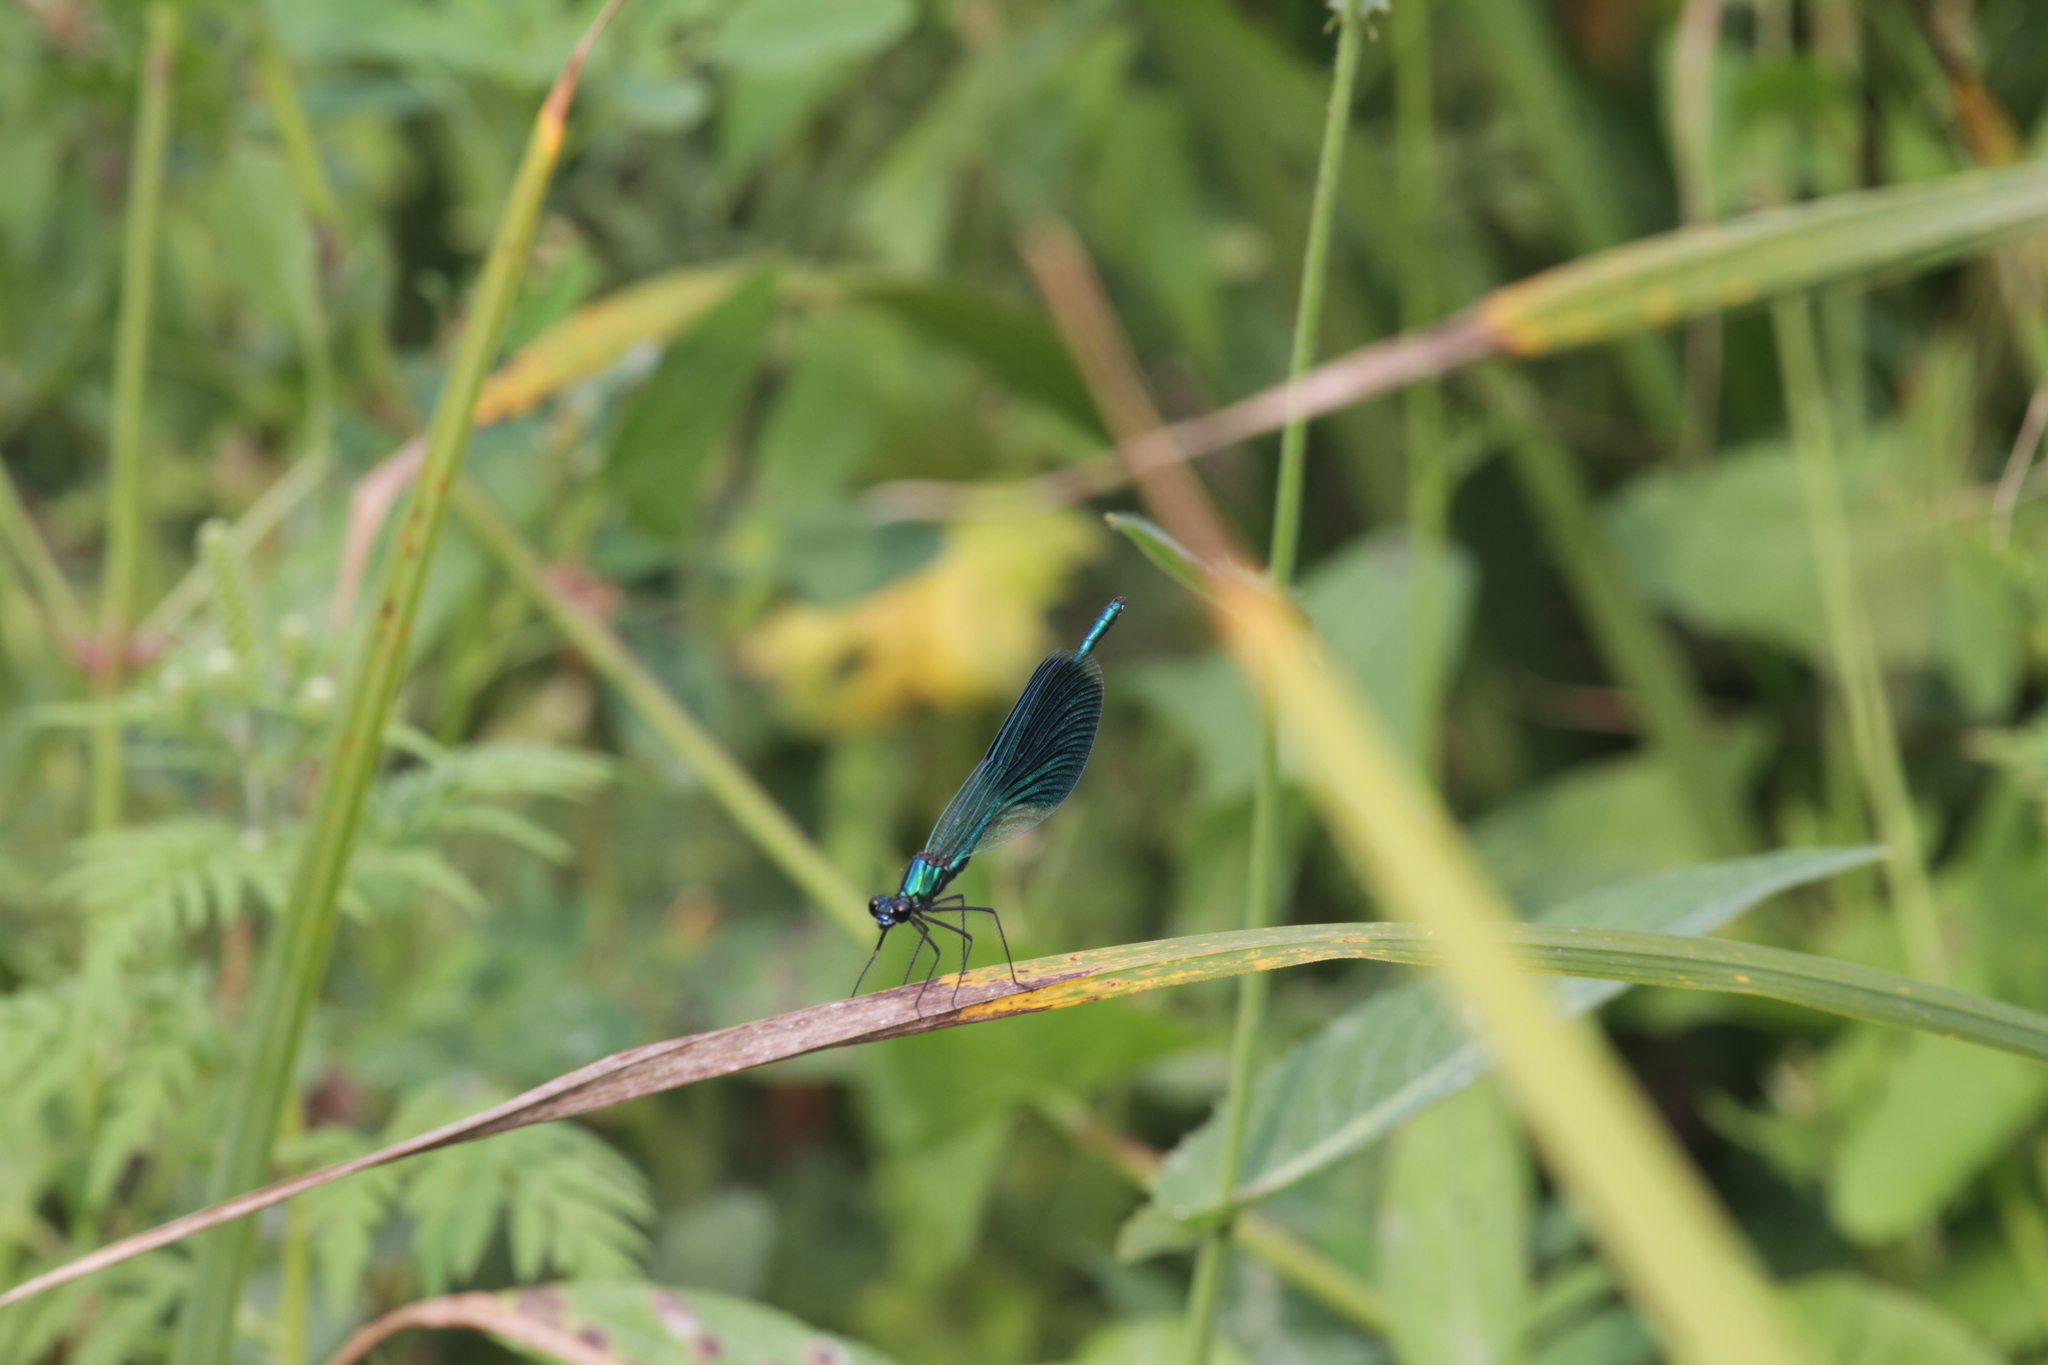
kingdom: Animalia
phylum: Arthropoda
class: Insecta
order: Odonata
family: Calopterygidae
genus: Calopteryx
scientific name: Calopteryx splendens
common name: Banded demoiselle
